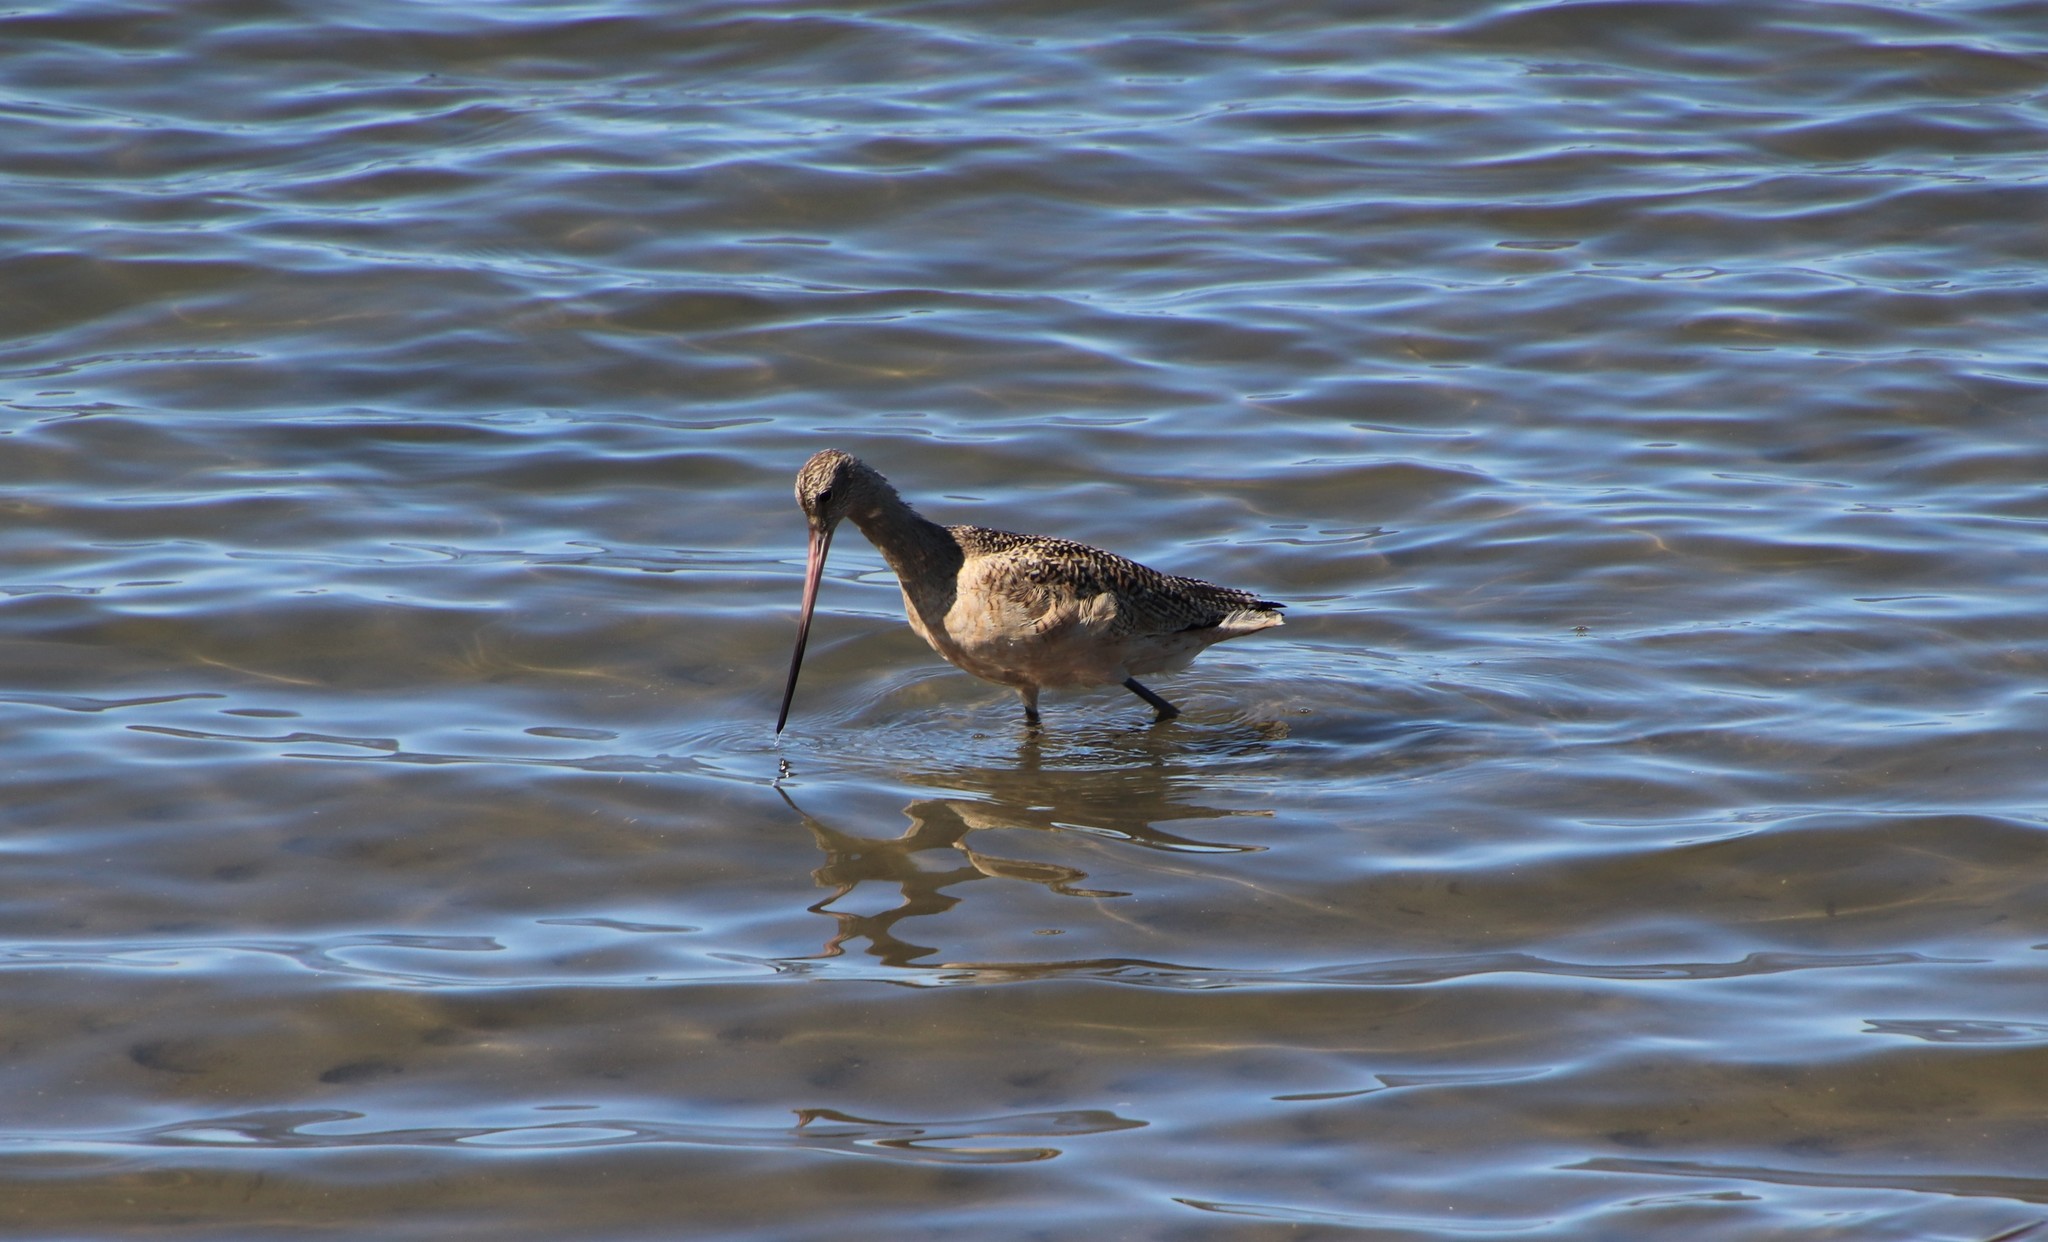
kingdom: Animalia
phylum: Chordata
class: Aves
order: Charadriiformes
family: Scolopacidae
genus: Limosa
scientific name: Limosa fedoa
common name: Marbled godwit
